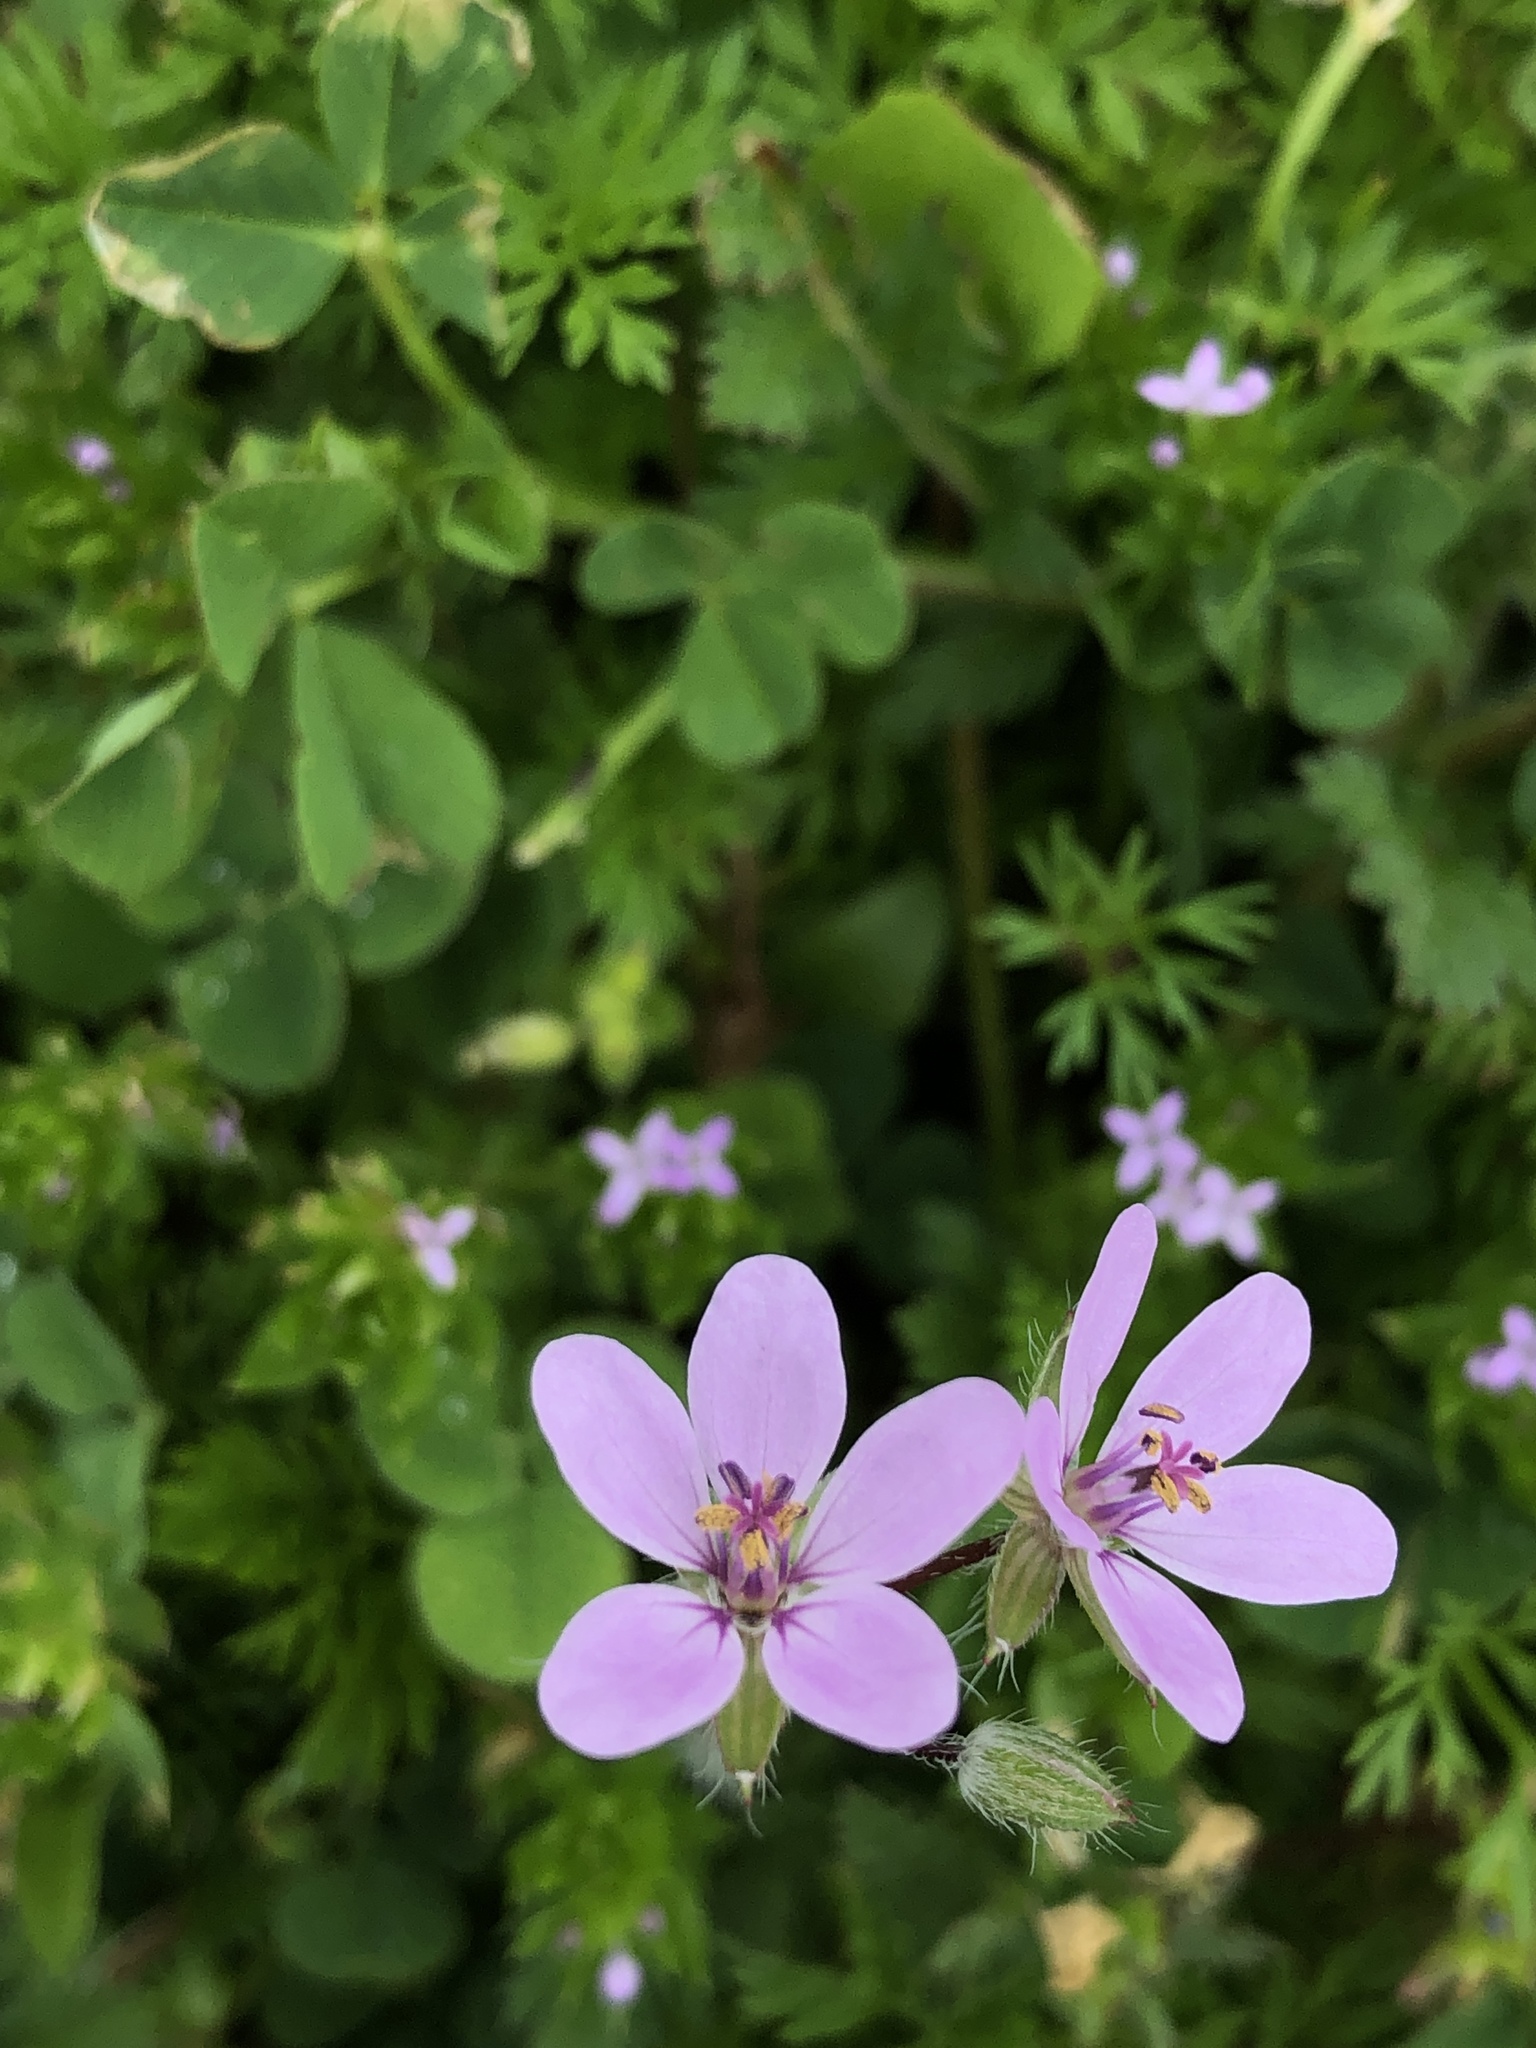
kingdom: Plantae
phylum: Tracheophyta
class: Magnoliopsida
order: Geraniales
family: Geraniaceae
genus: Erodium
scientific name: Erodium cicutarium
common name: Common stork's-bill
